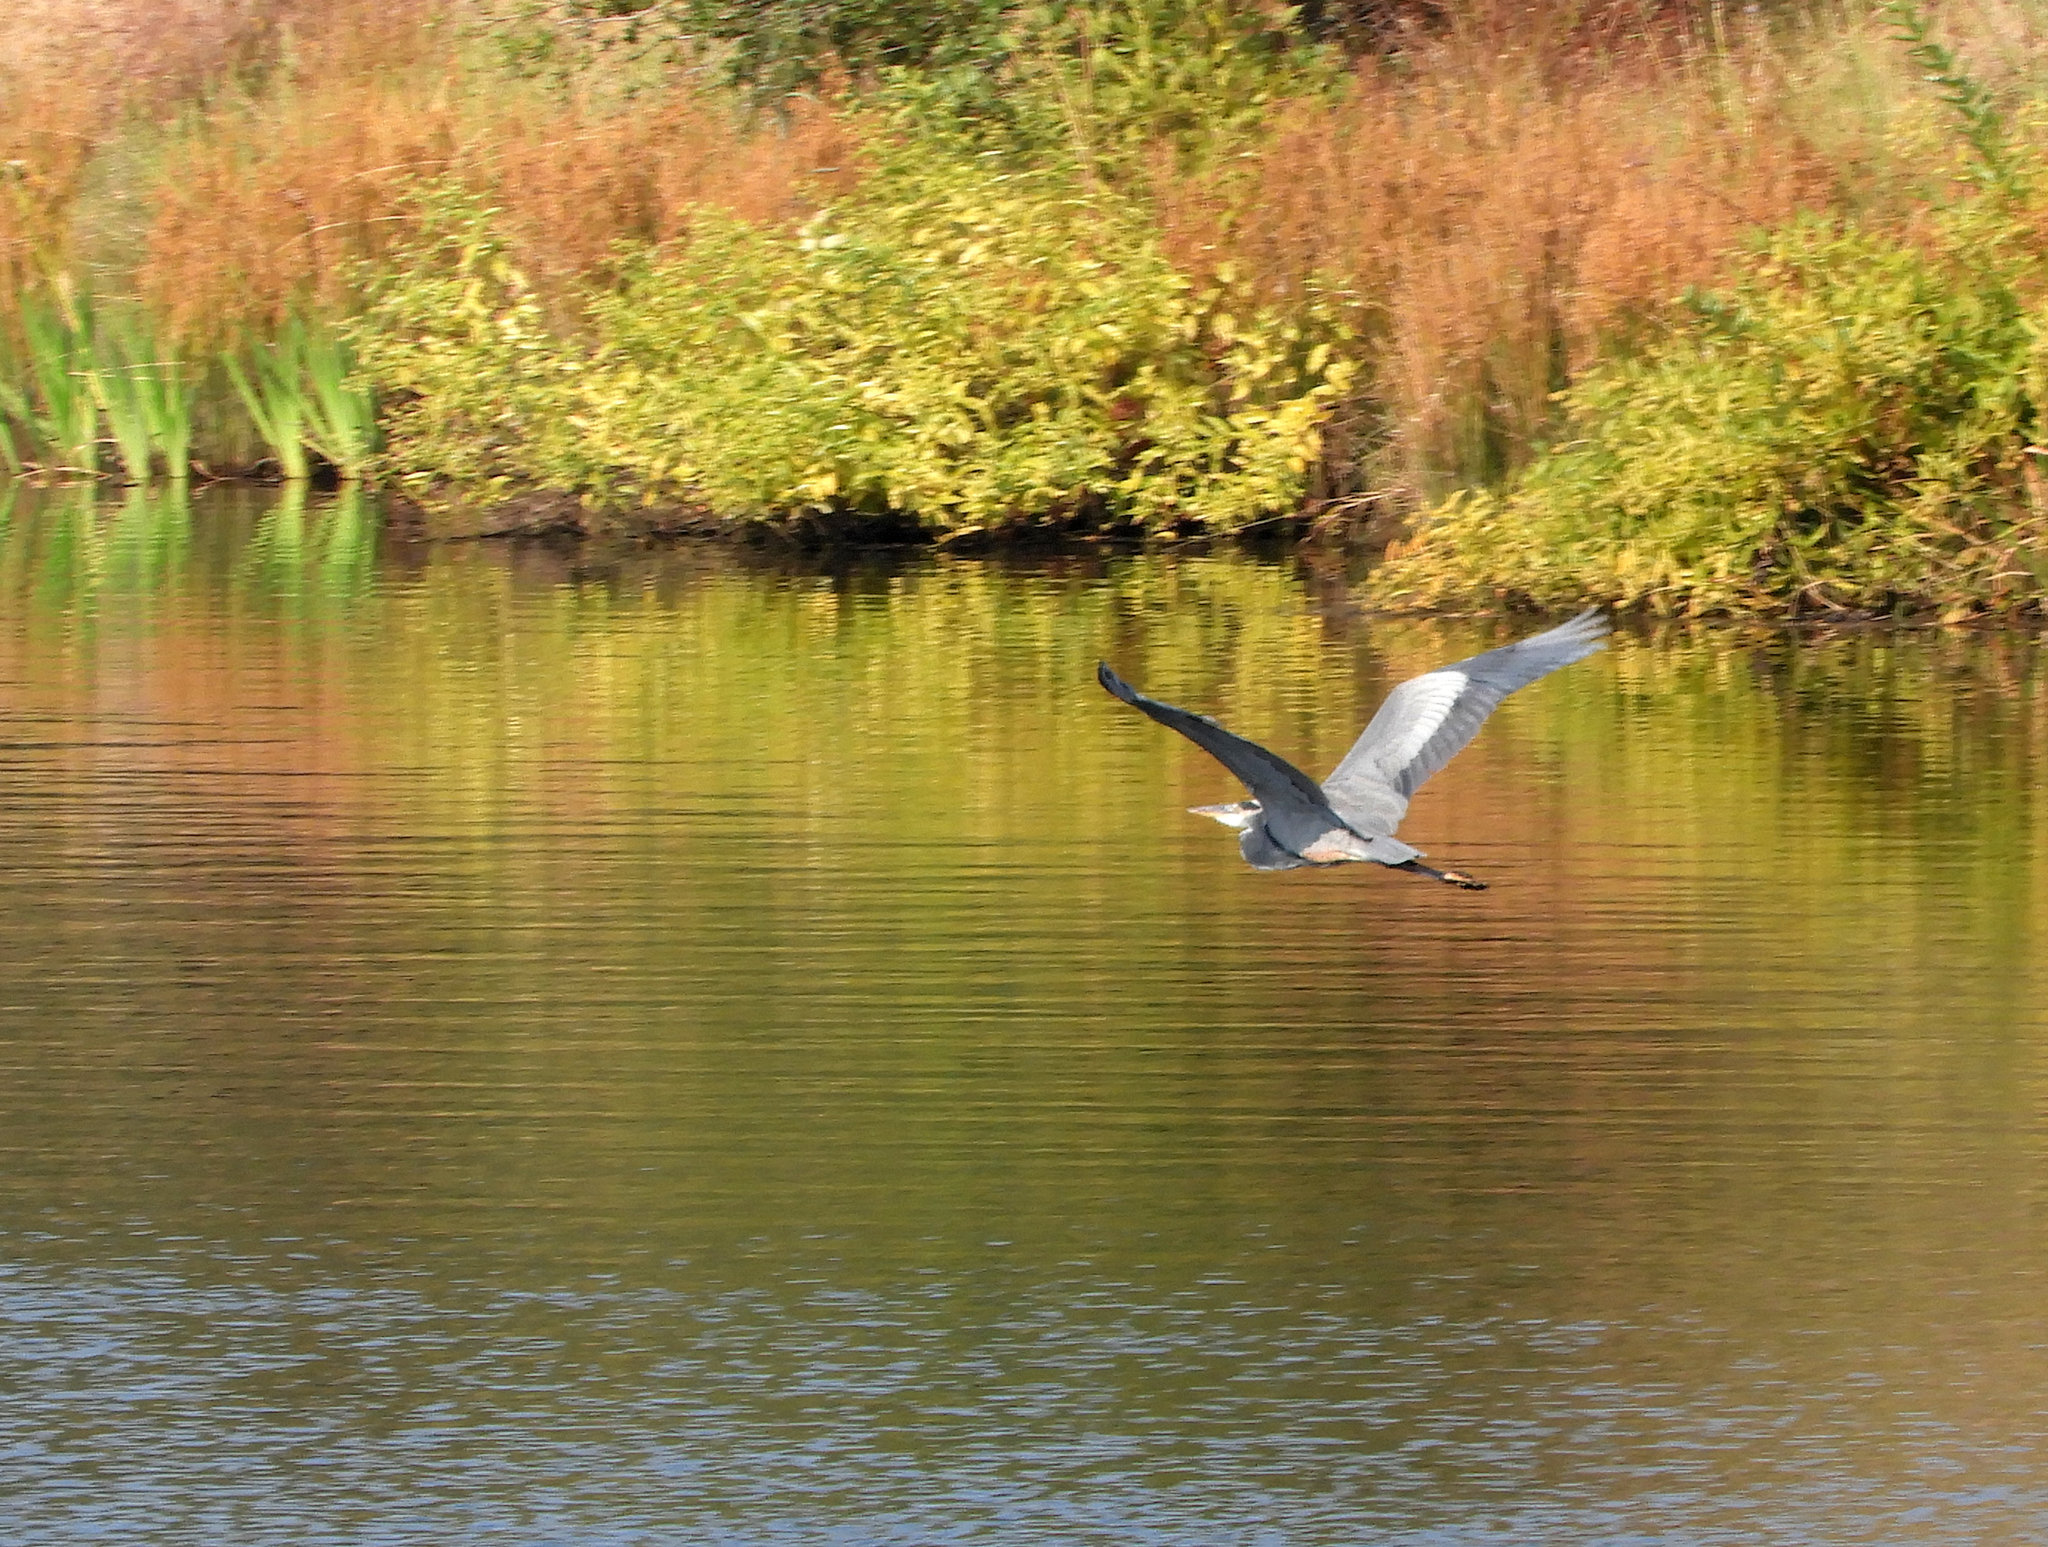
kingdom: Animalia
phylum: Chordata
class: Aves
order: Pelecaniformes
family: Ardeidae
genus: Ardea
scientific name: Ardea herodias
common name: Great blue heron
